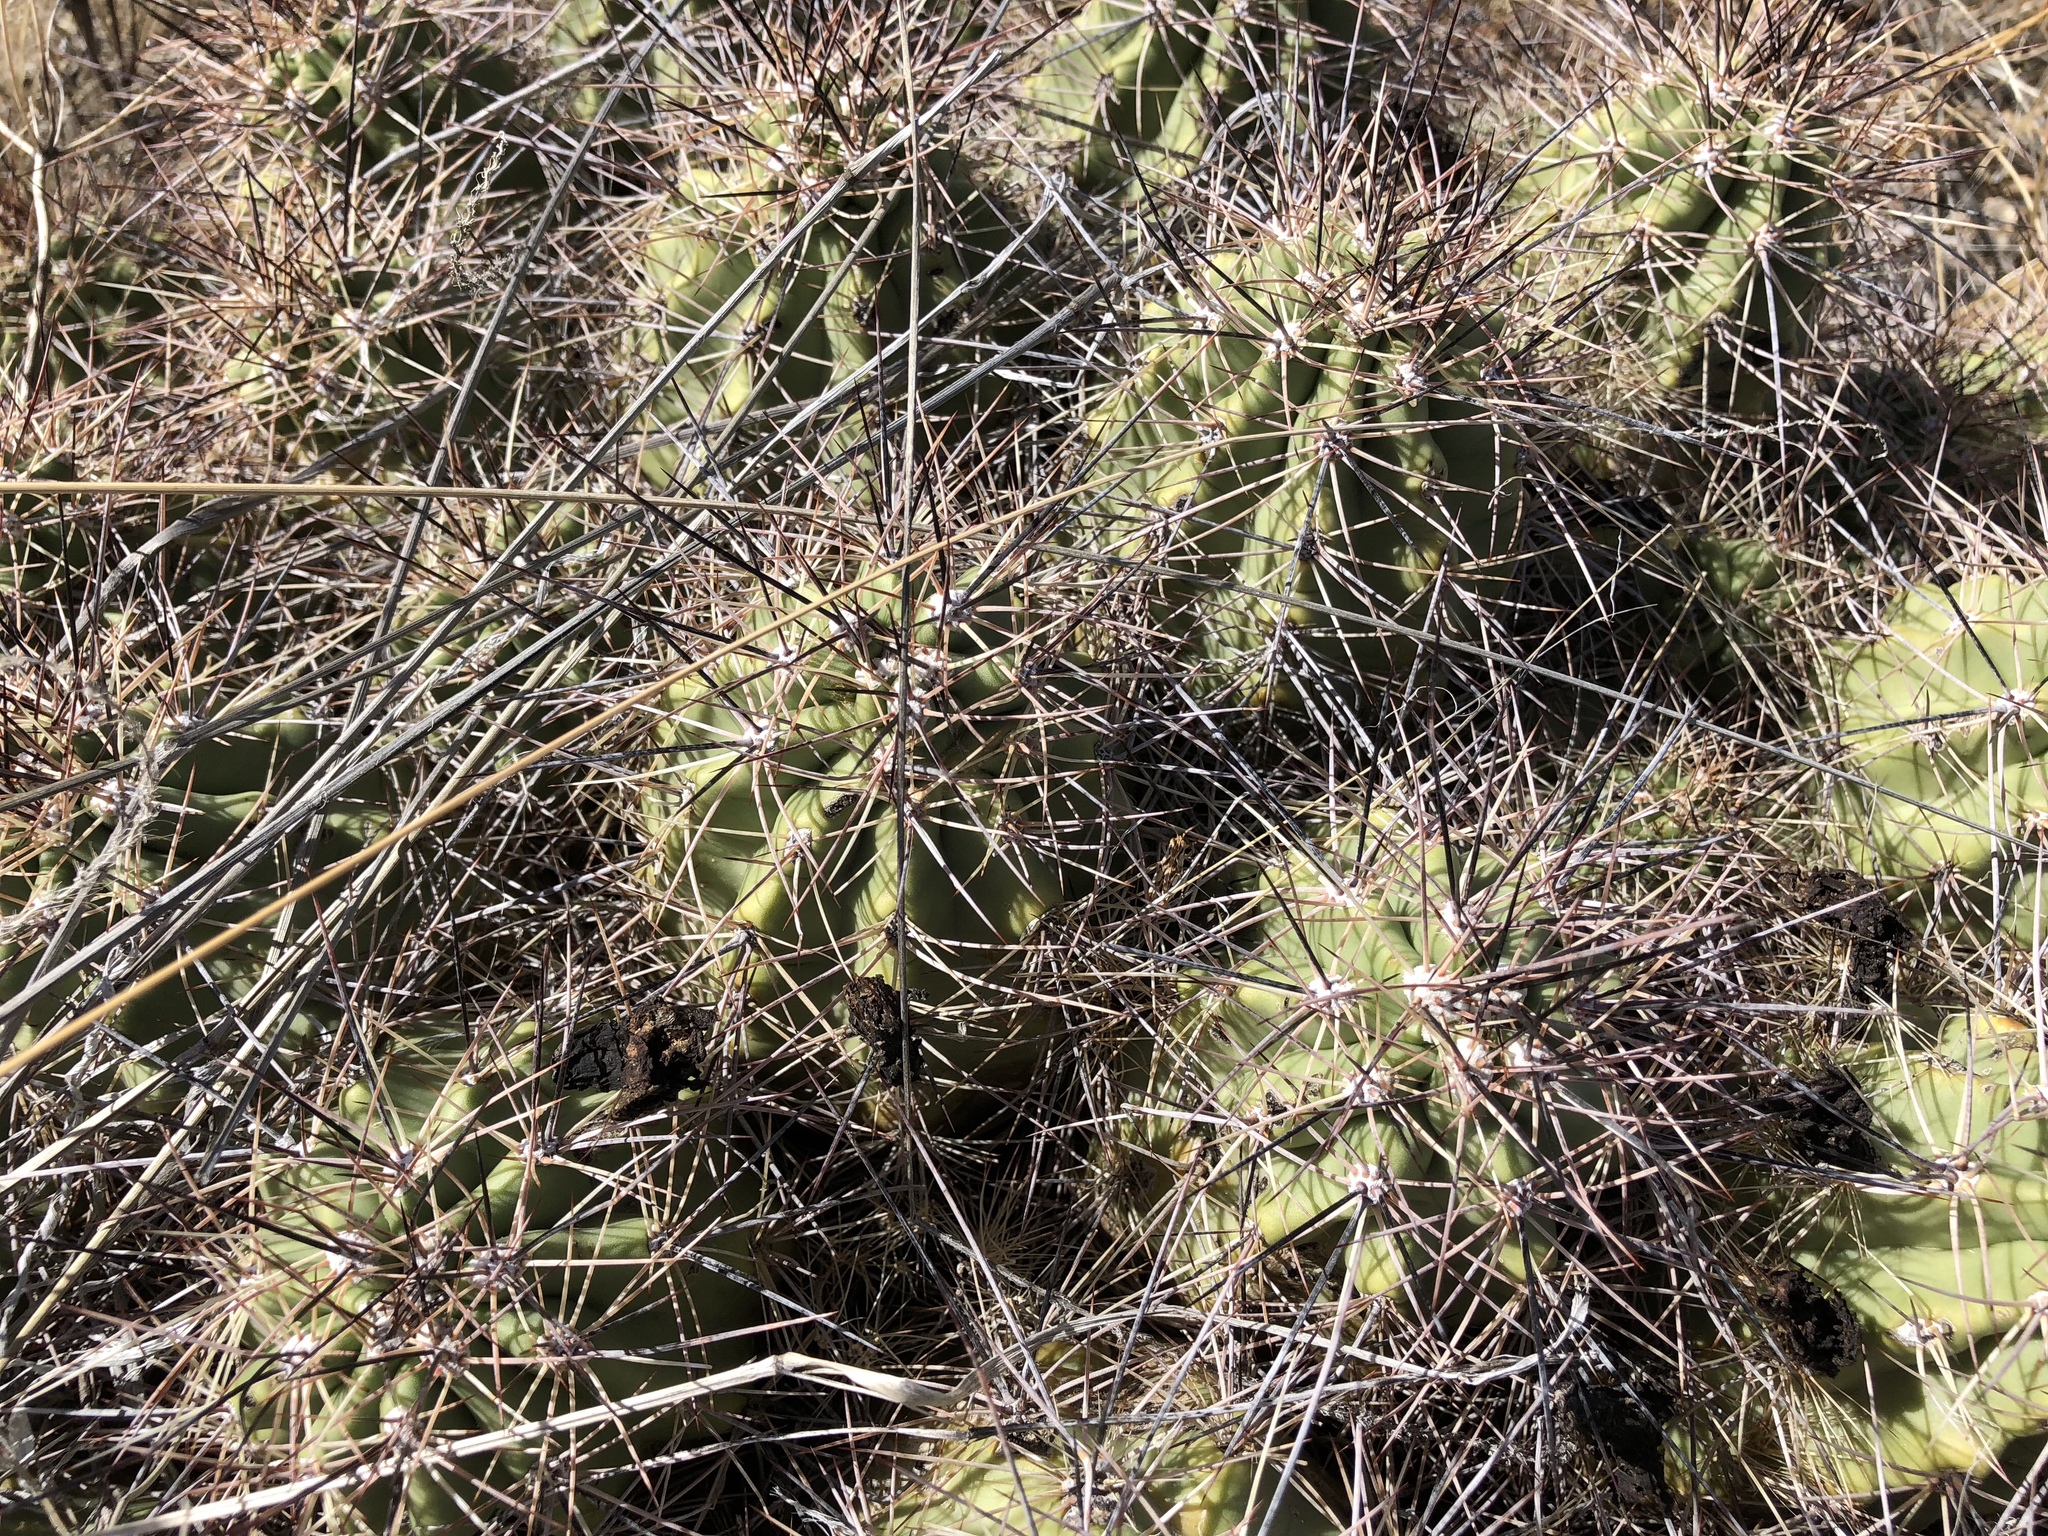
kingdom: Plantae
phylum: Tracheophyta
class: Magnoliopsida
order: Caryophyllales
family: Cactaceae
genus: Echinocereus
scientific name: Echinocereus coccineus
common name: Scarlet hedgehog cactus
